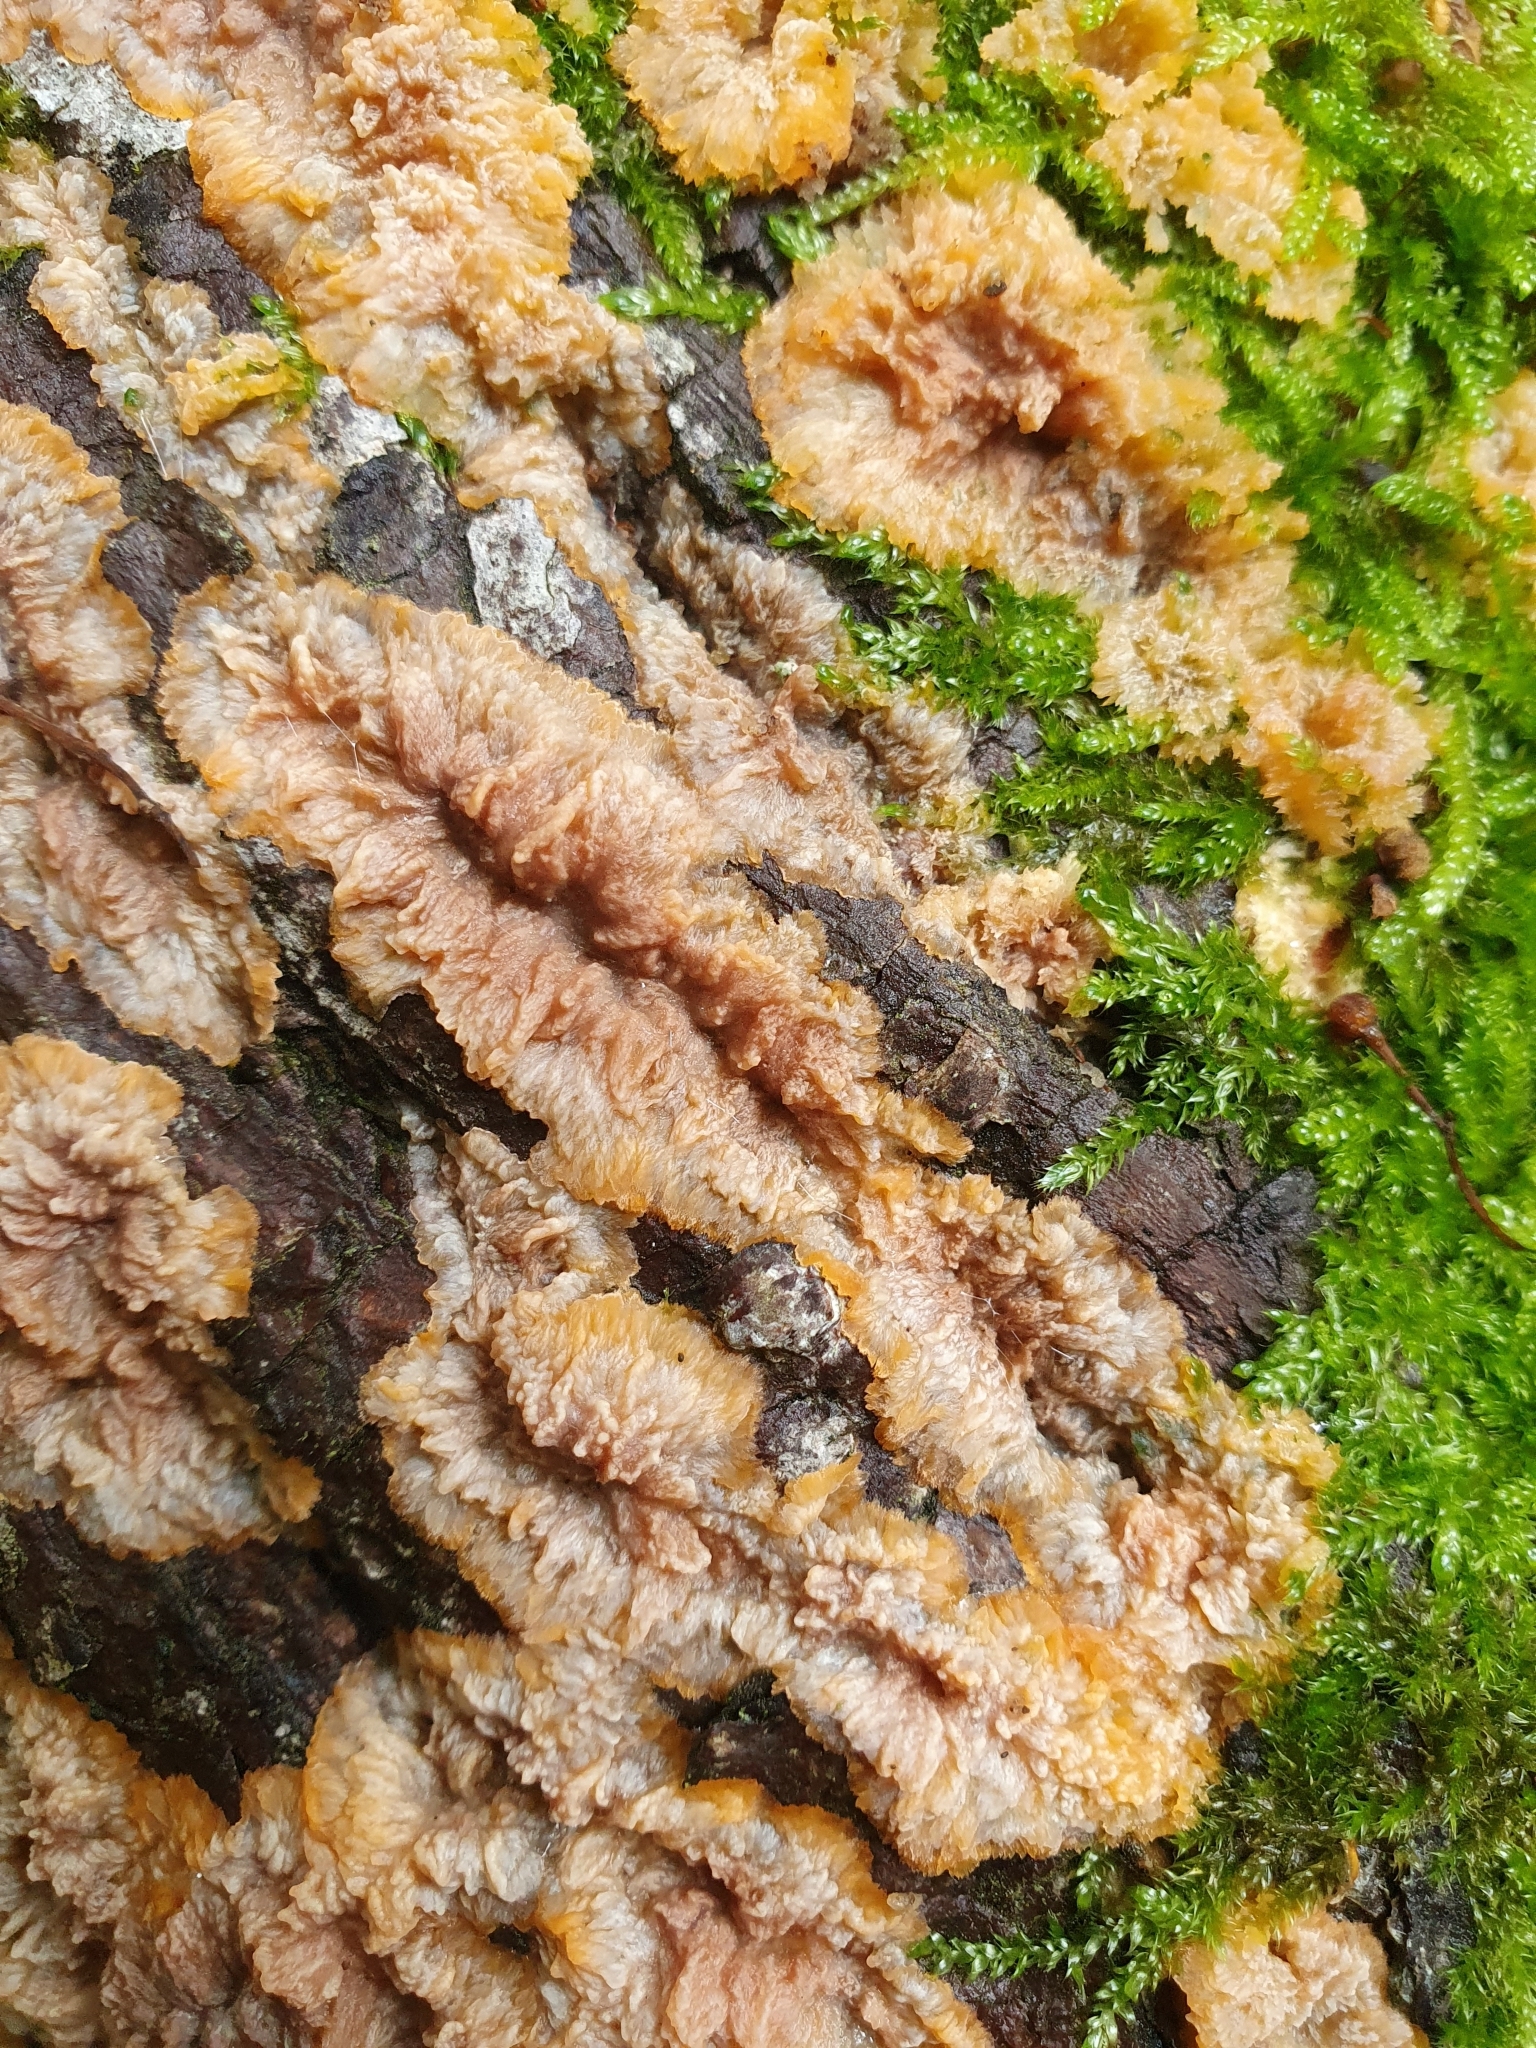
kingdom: Fungi
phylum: Basidiomycota
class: Agaricomycetes
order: Polyporales
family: Meruliaceae
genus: Phlebia
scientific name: Phlebia radiata
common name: Wrinkled crust
